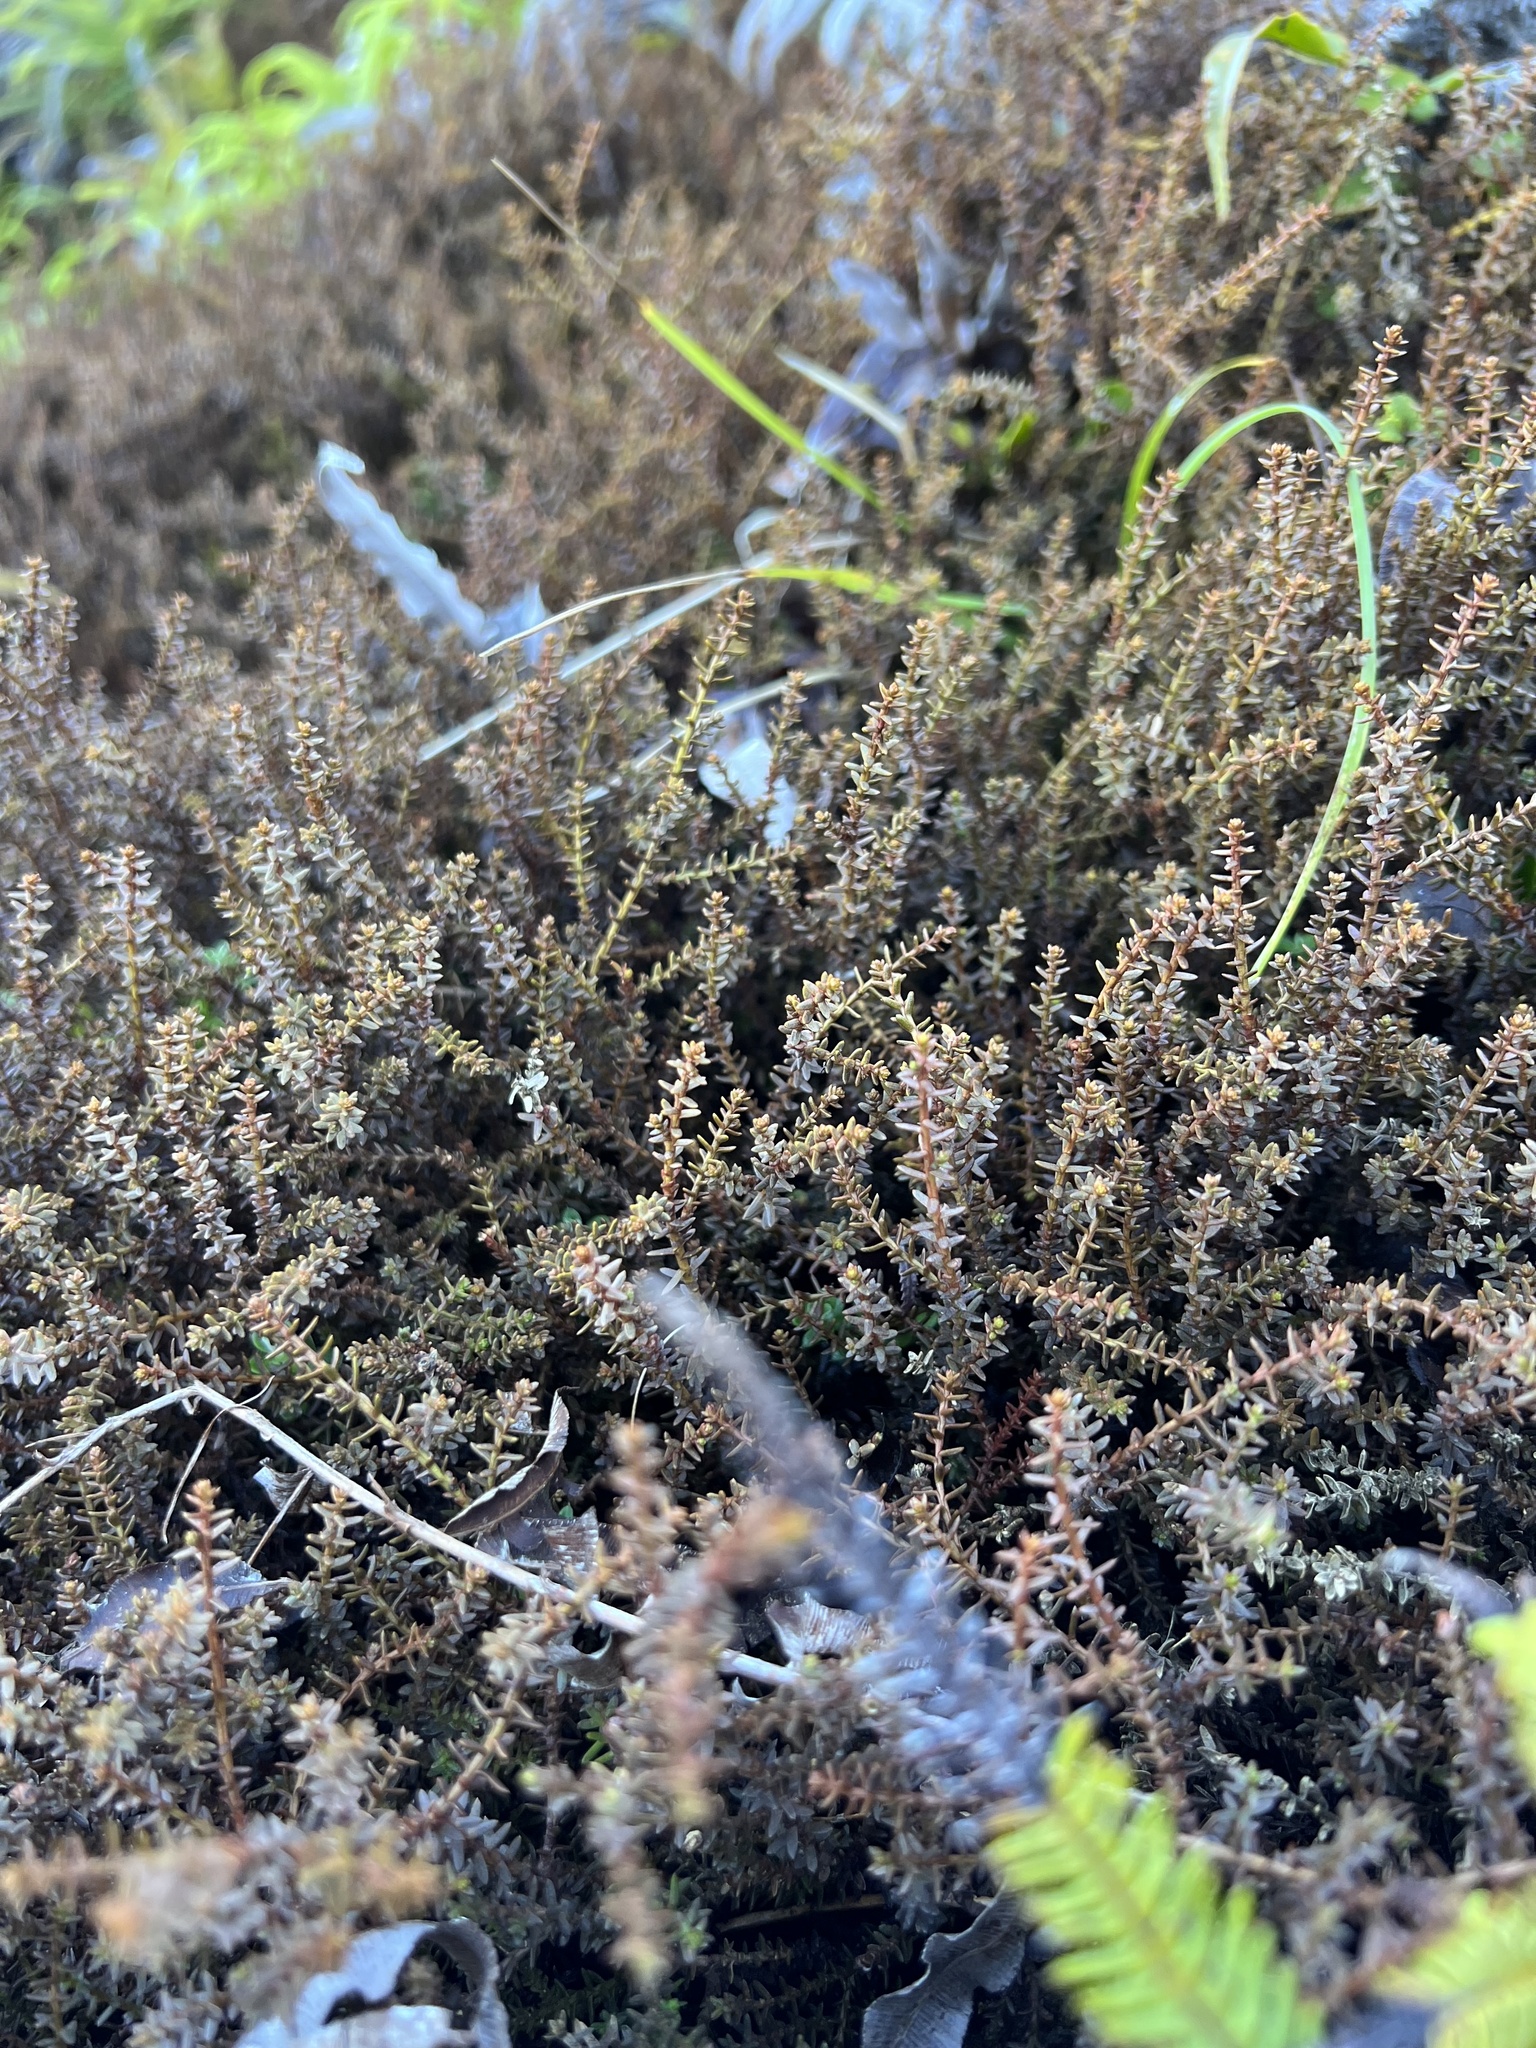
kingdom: Plantae
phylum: Tracheophyta
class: Pinopsida
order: Pinales
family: Podocarpaceae
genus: Lepidothamnus
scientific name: Lepidothamnus laxifolius
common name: Pygmy pine
